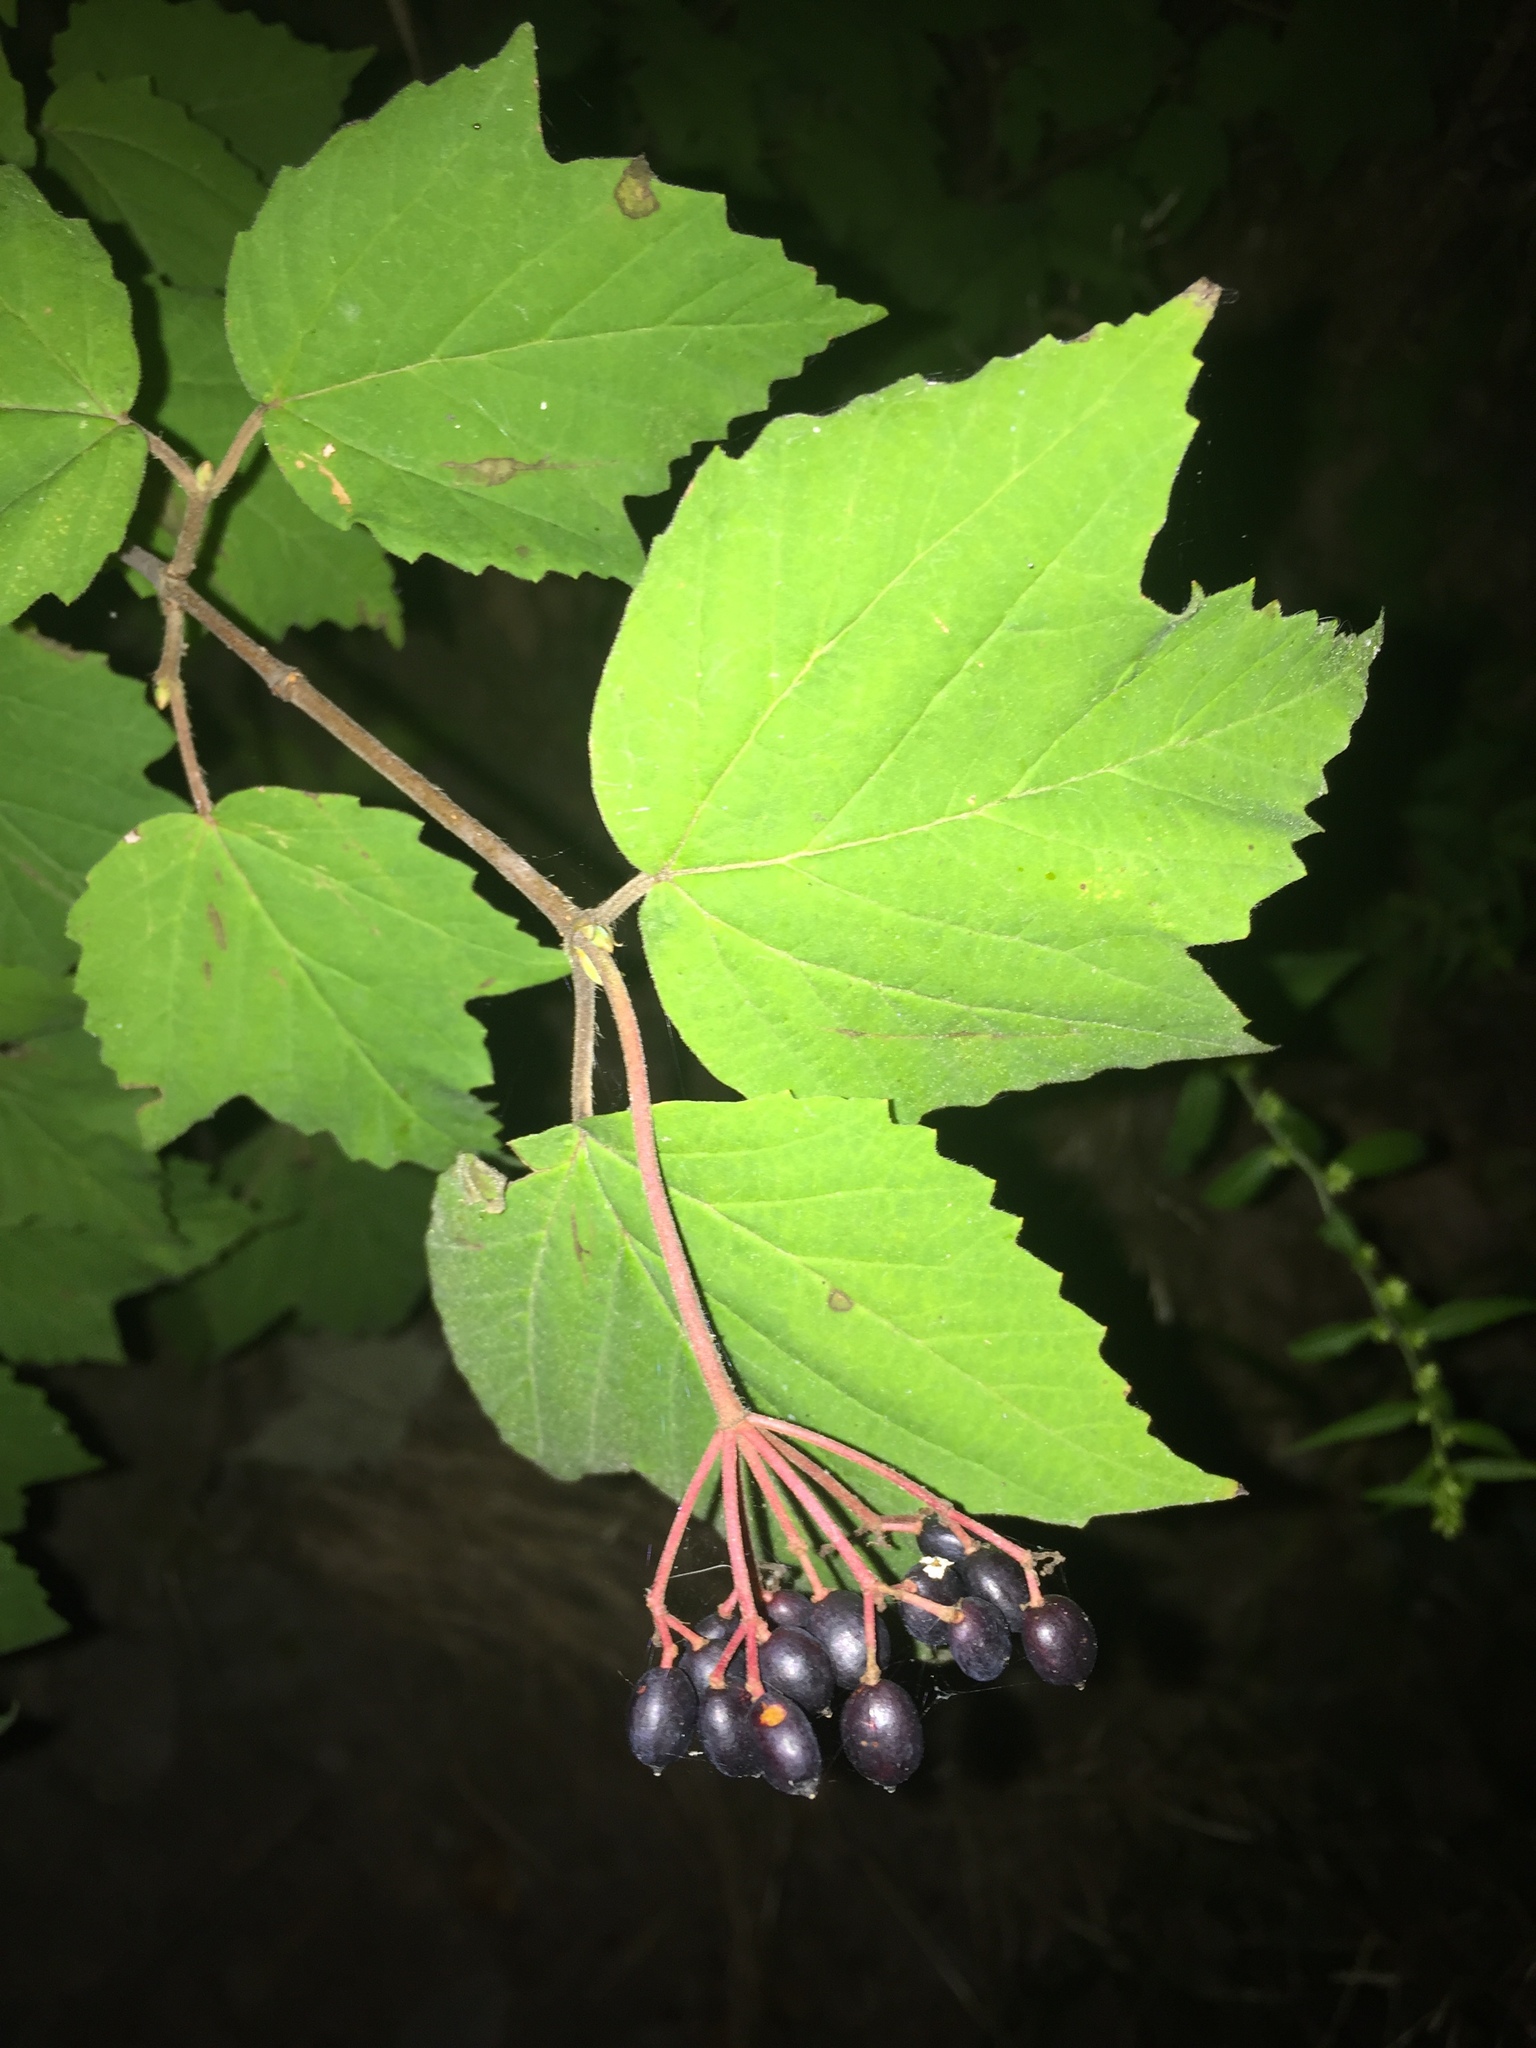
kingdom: Plantae
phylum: Tracheophyta
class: Magnoliopsida
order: Dipsacales
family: Viburnaceae
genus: Viburnum
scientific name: Viburnum acerifolium
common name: Dockmackie
